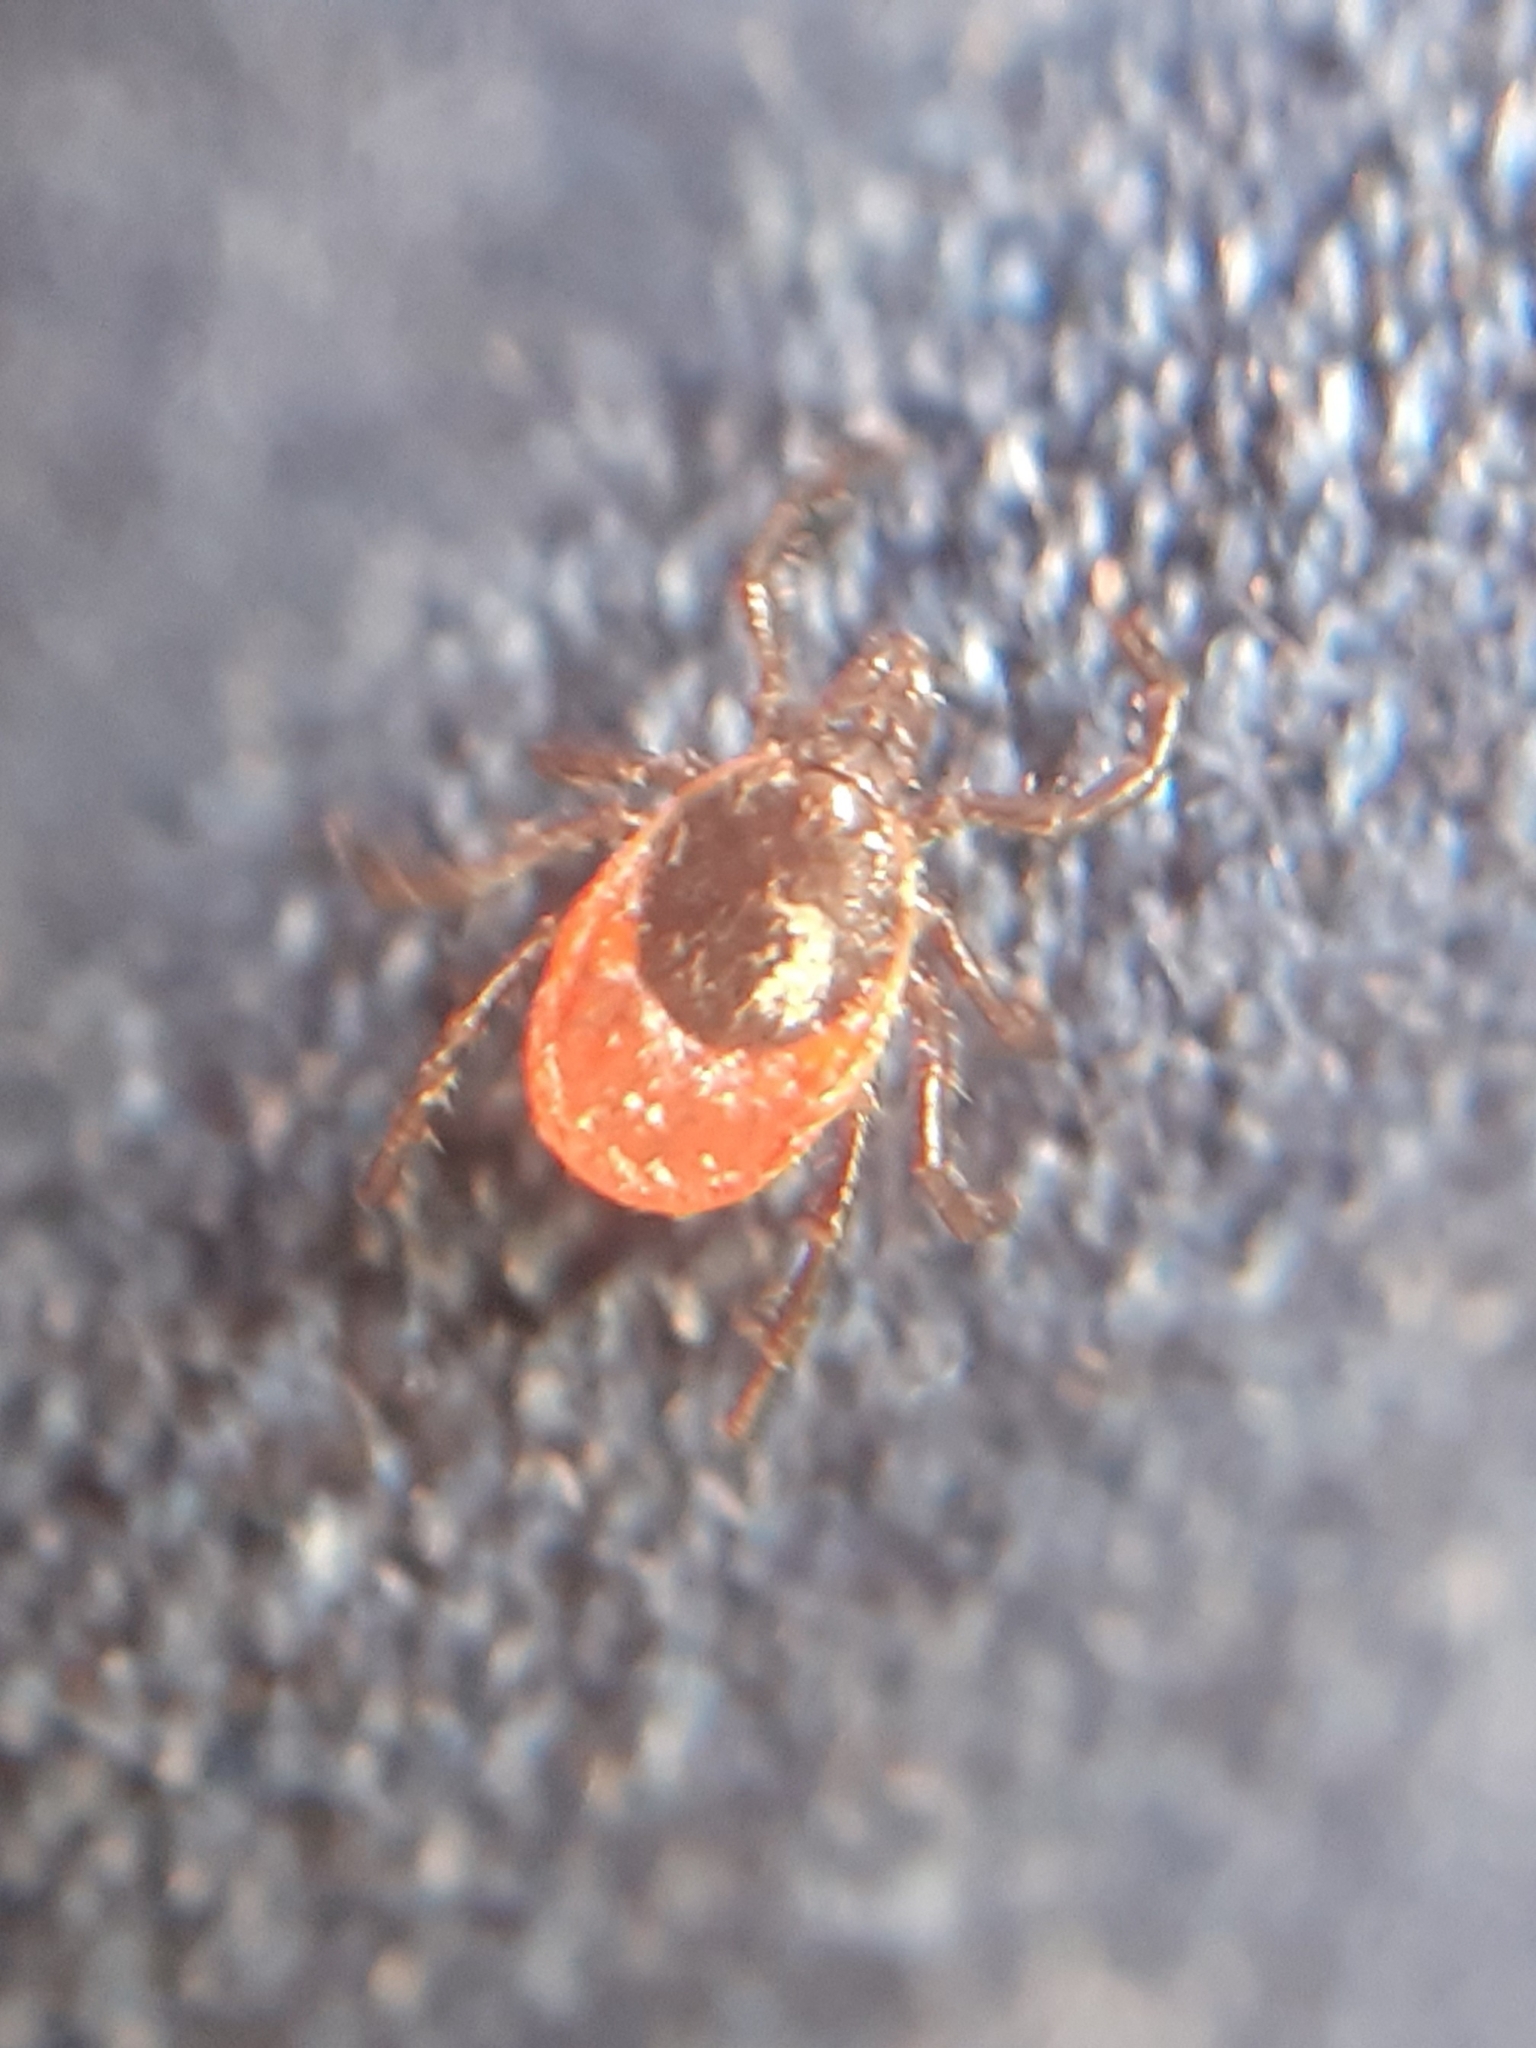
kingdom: Animalia
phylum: Arthropoda
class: Arachnida
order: Ixodida
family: Ixodidae
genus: Ixodes
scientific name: Ixodes ricinus
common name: Castor bean tick
